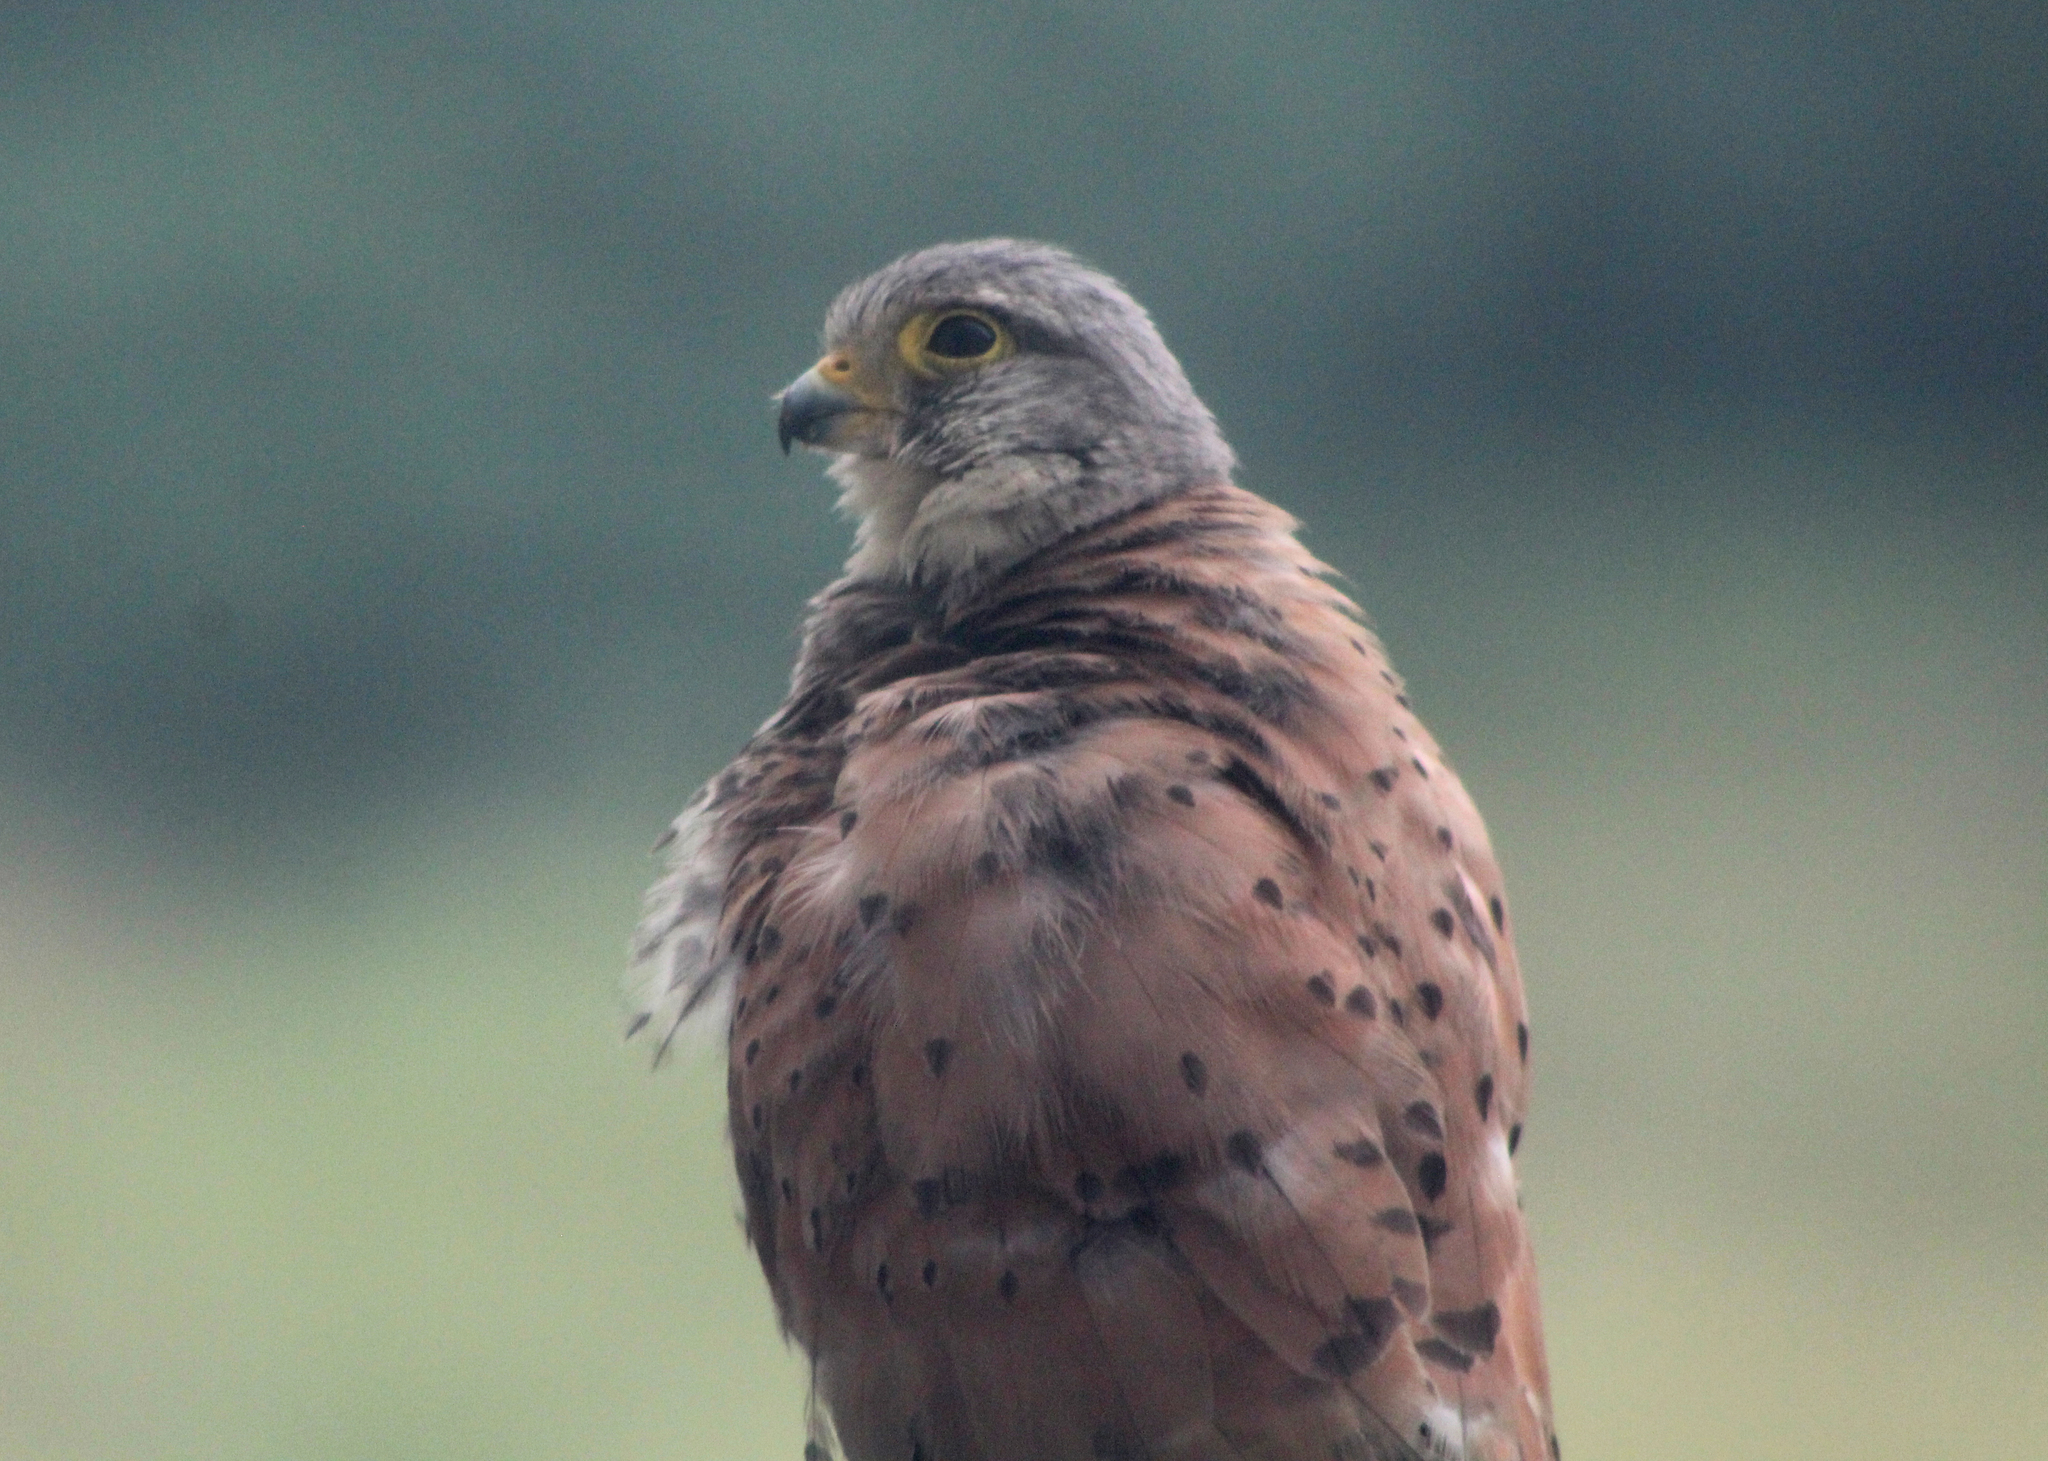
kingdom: Animalia
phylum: Chordata
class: Aves
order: Falconiformes
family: Falconidae
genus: Falco
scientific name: Falco tinnunculus
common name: Common kestrel
